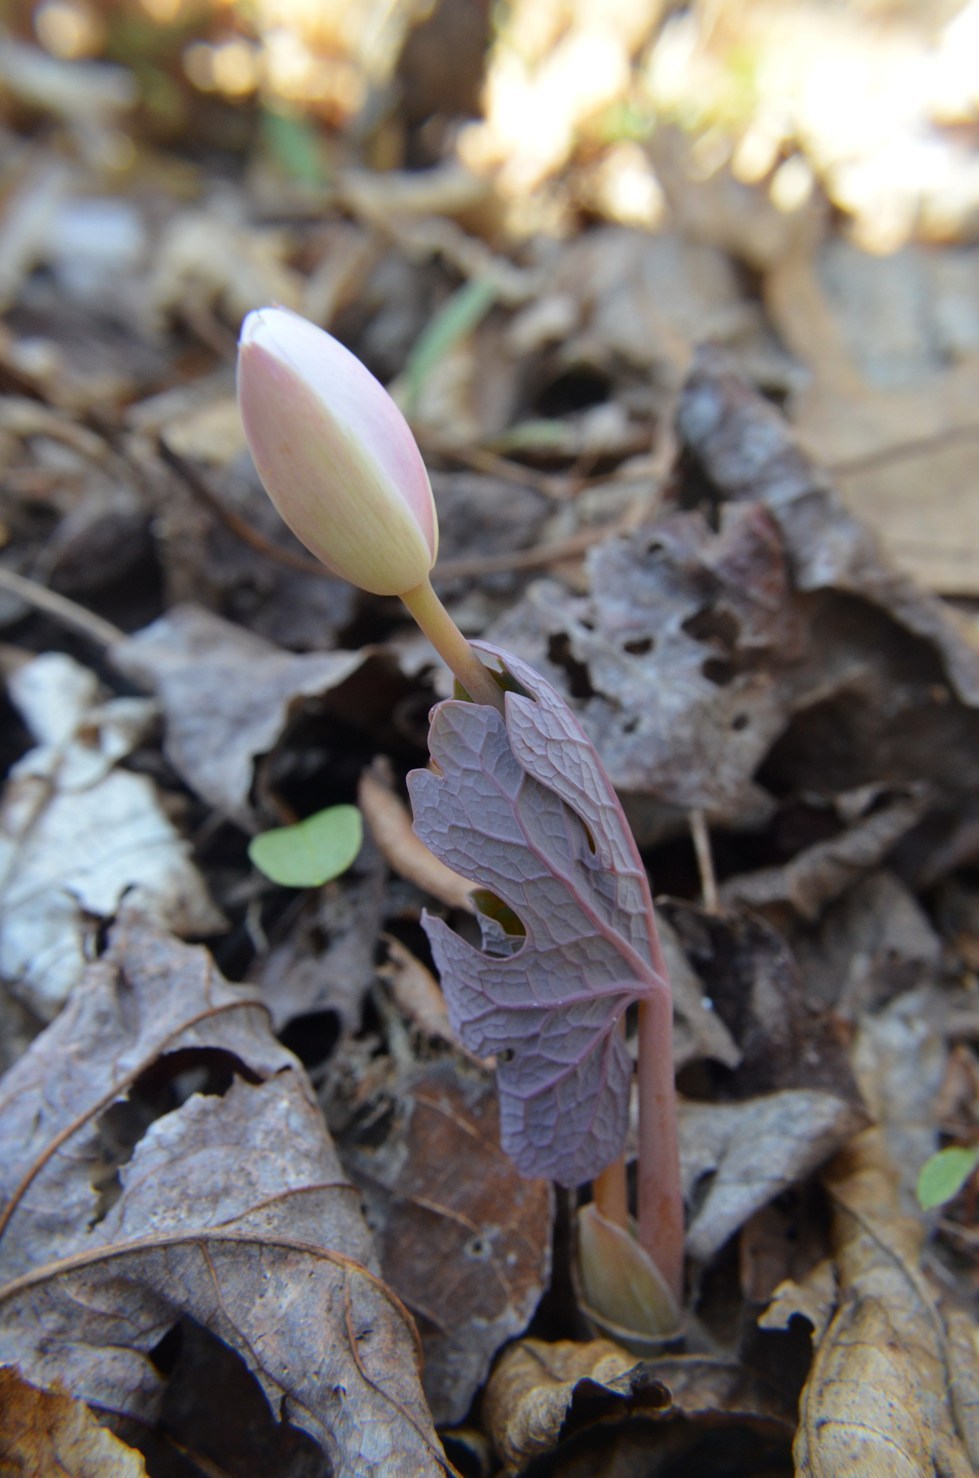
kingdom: Plantae
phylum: Tracheophyta
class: Magnoliopsida
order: Ranunculales
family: Papaveraceae
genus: Sanguinaria
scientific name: Sanguinaria canadensis
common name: Bloodroot
